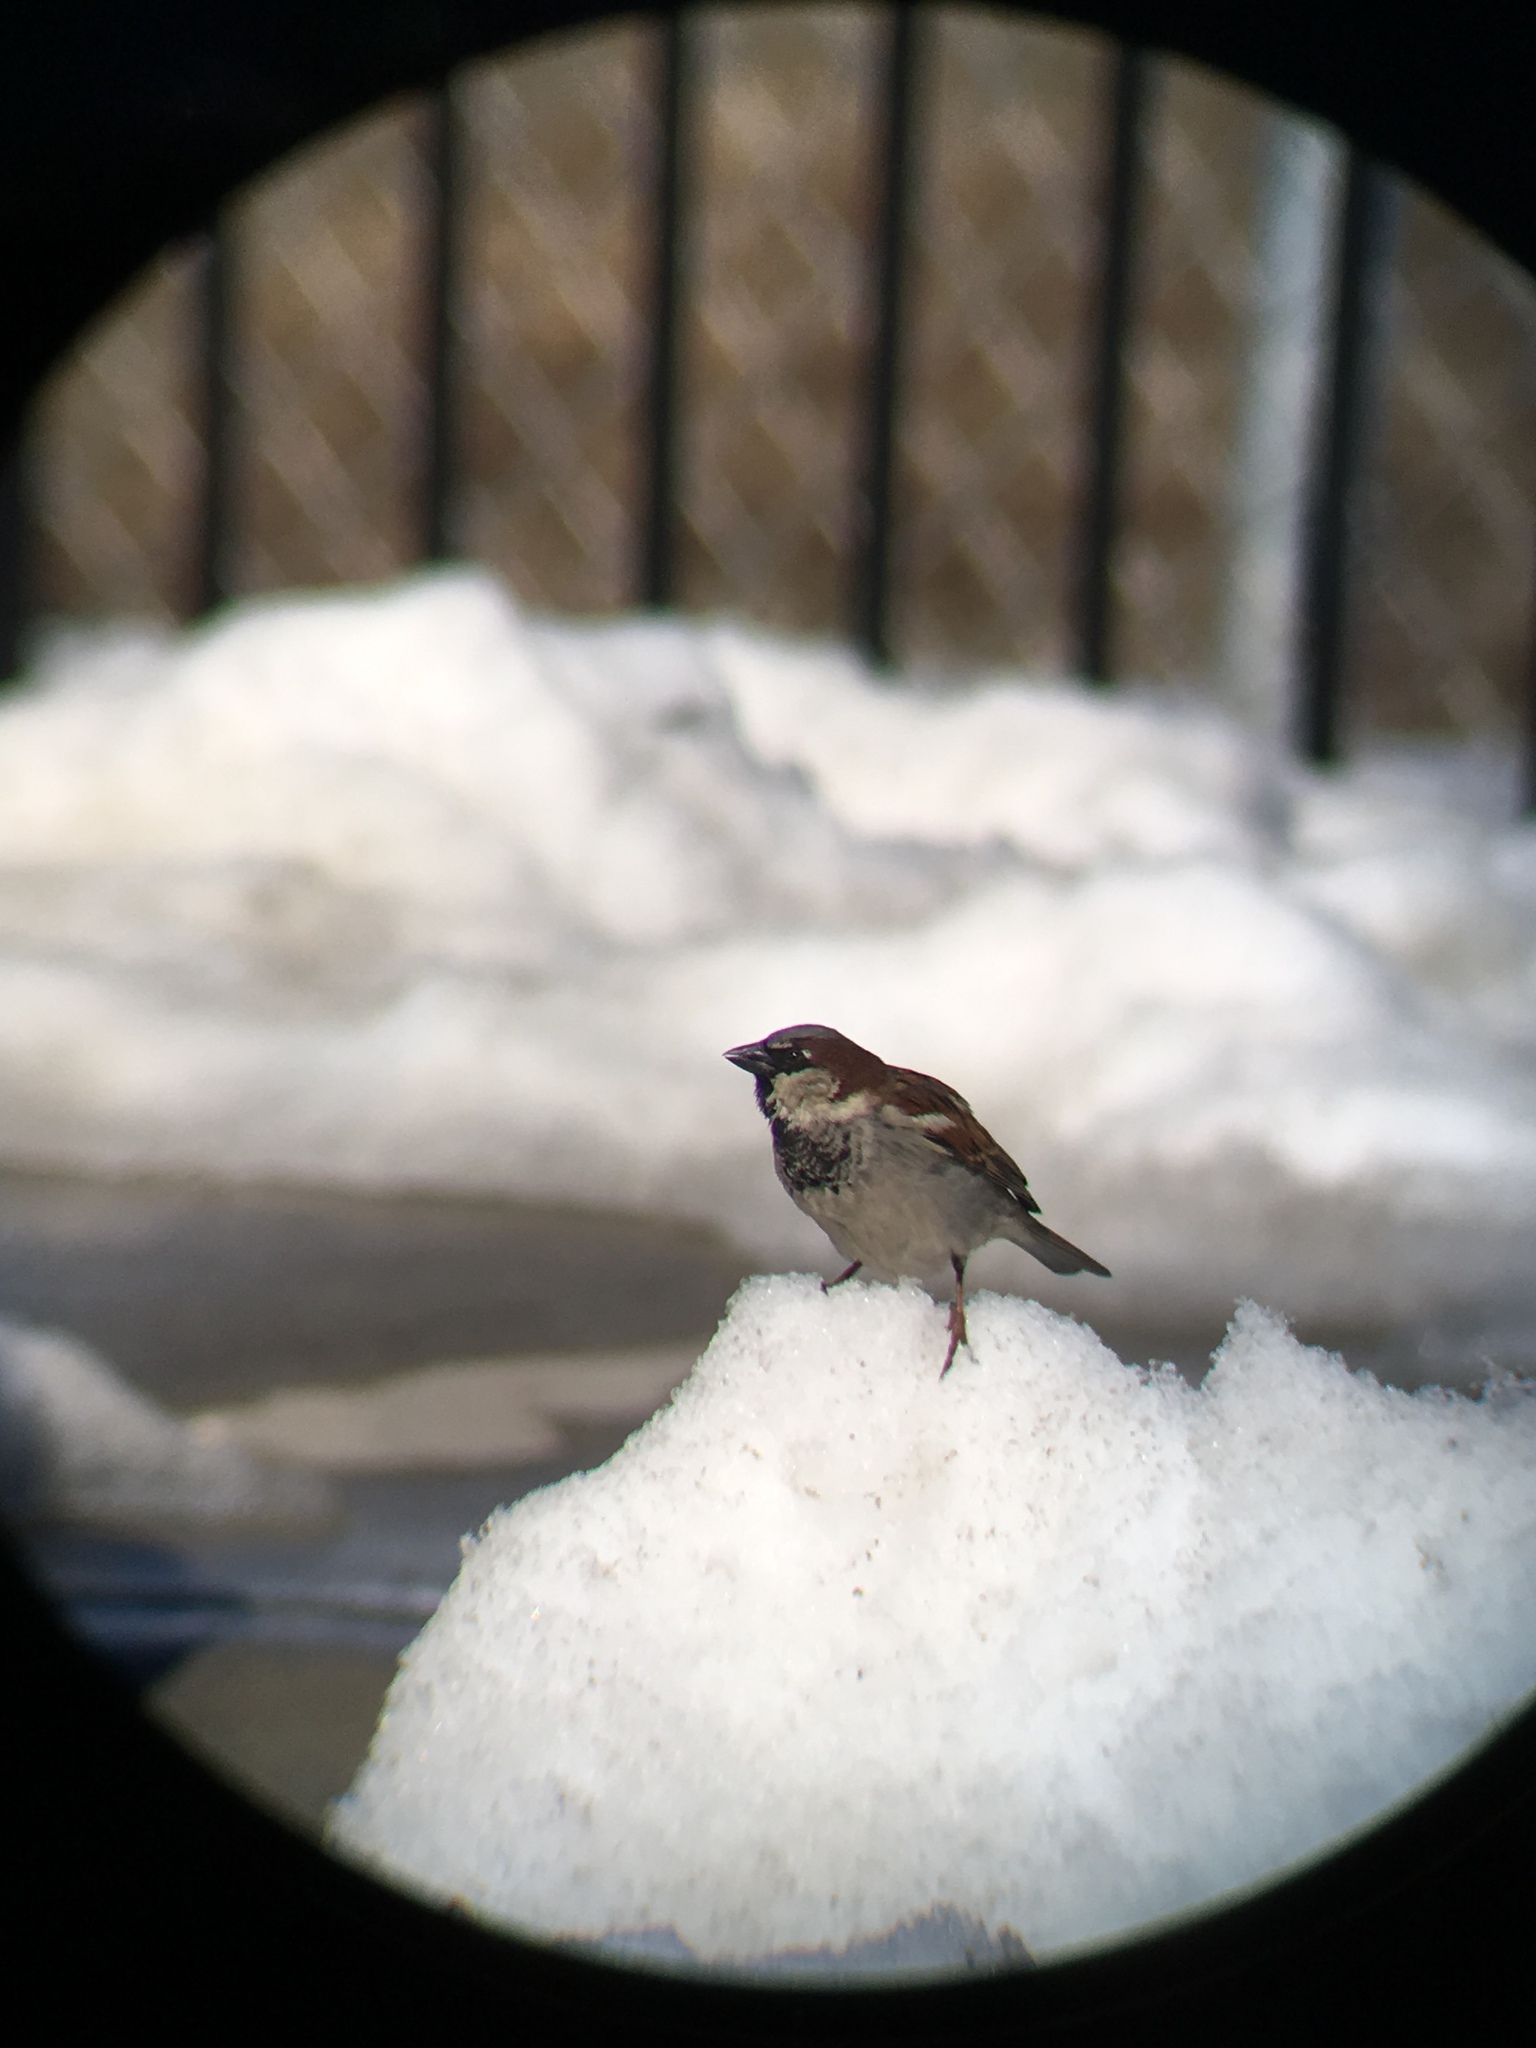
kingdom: Animalia
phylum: Chordata
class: Aves
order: Passeriformes
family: Passeridae
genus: Passer
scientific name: Passer domesticus
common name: House sparrow
